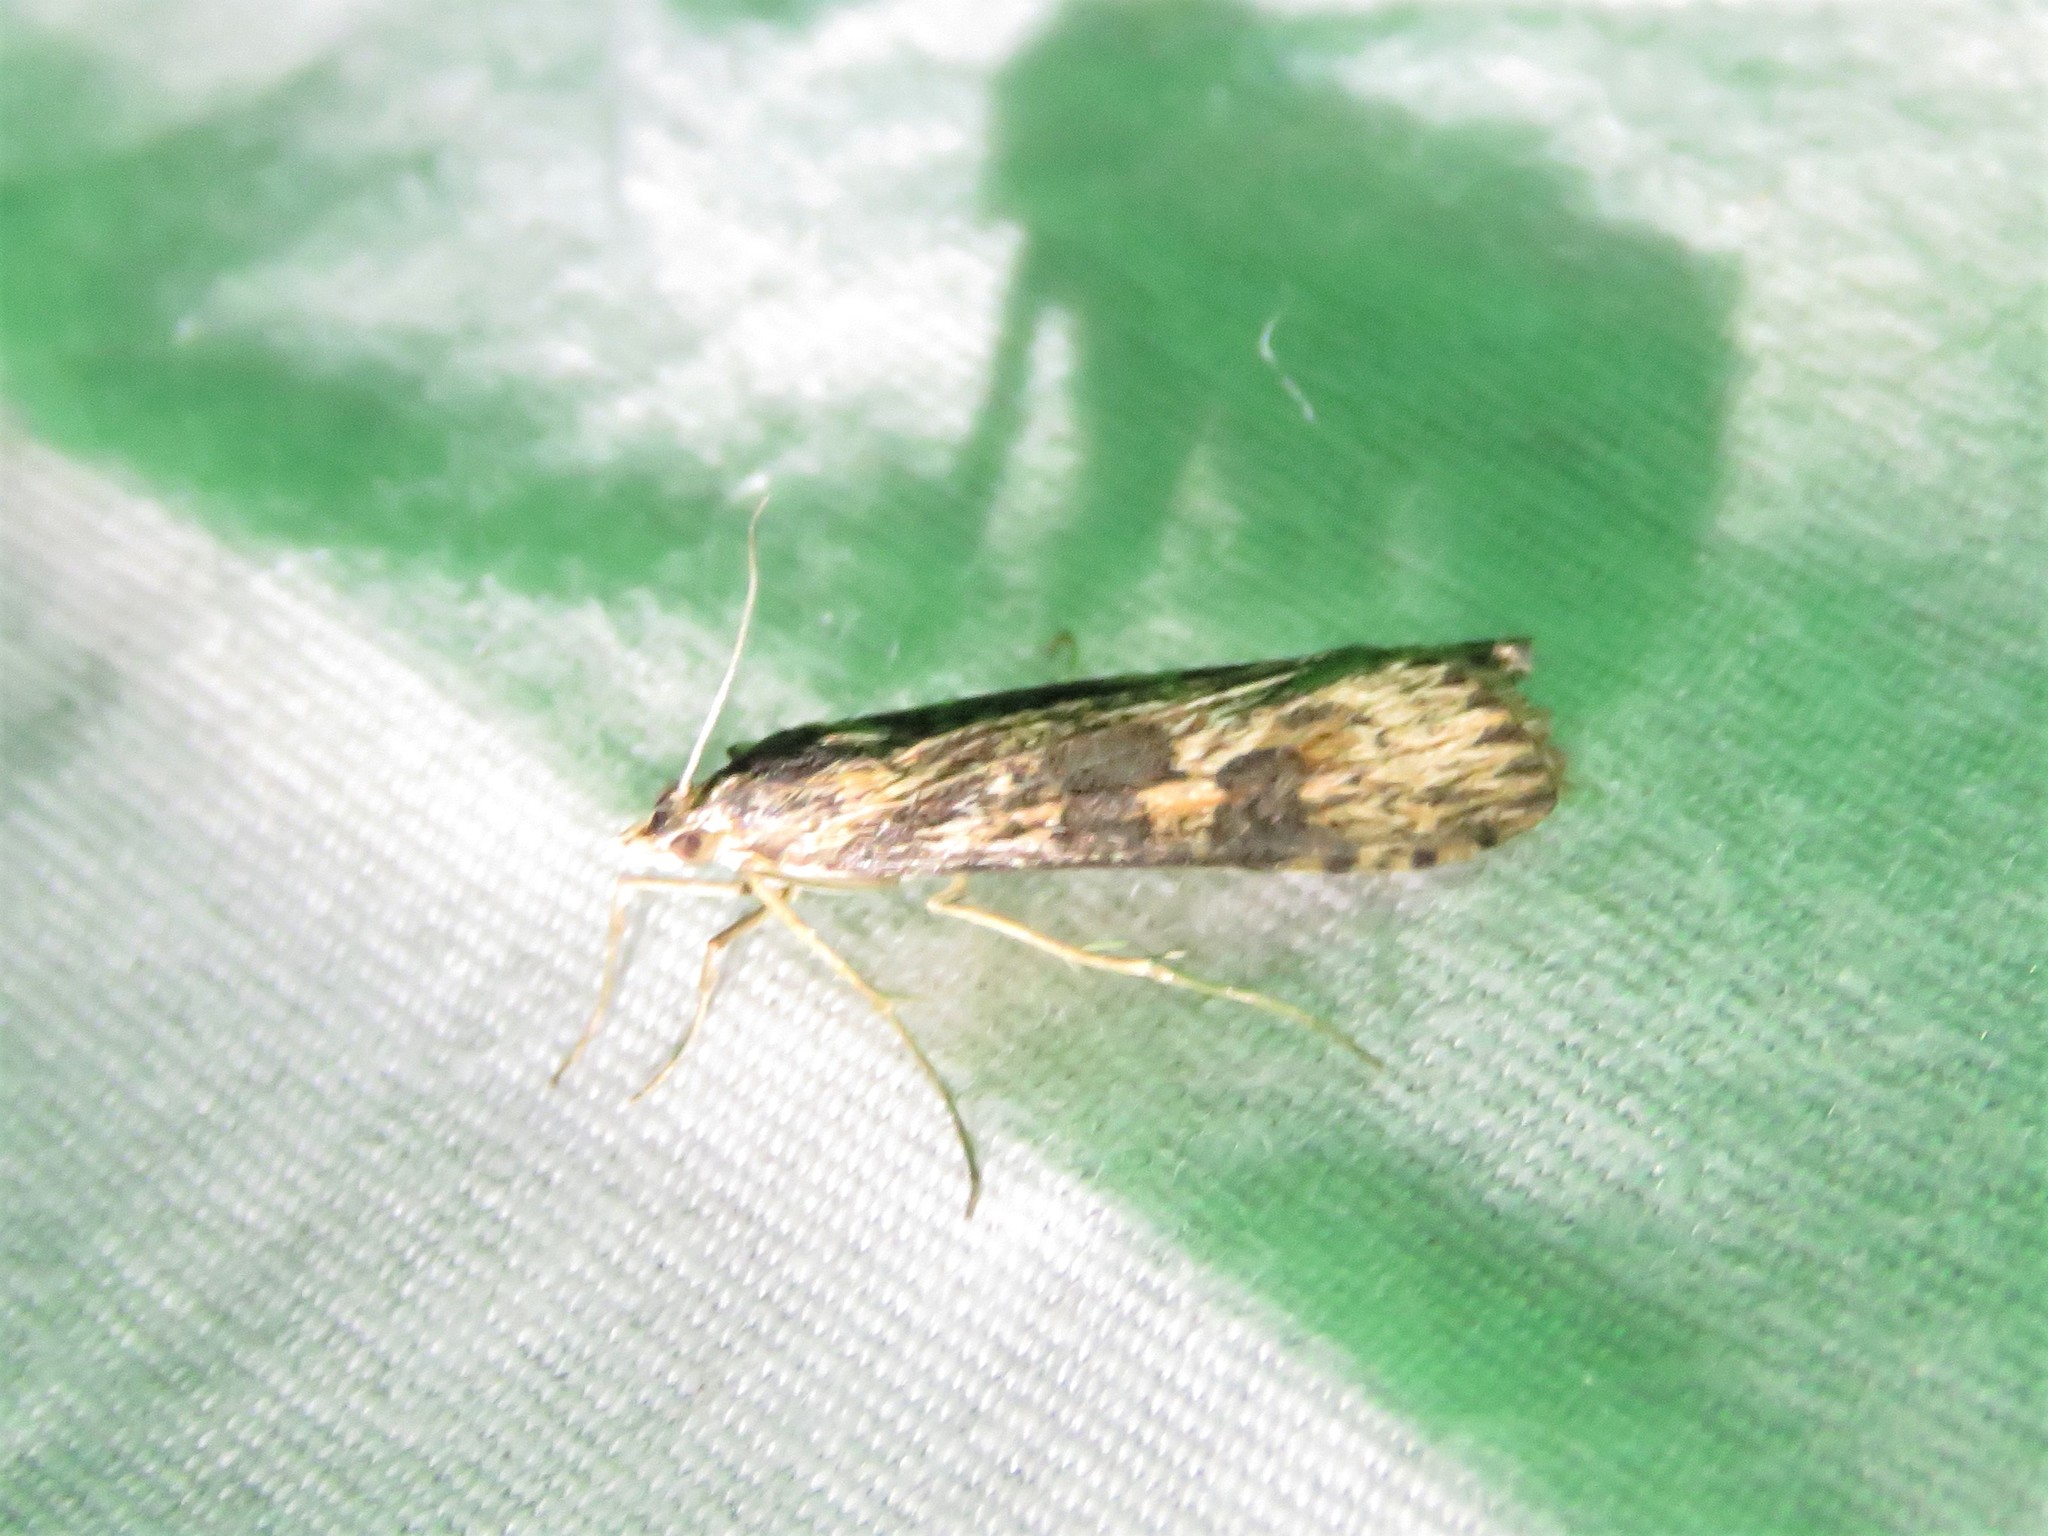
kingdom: Animalia
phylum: Arthropoda
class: Insecta
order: Lepidoptera
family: Crambidae
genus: Nomophila
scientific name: Nomophila nearctica
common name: American rush veneer
